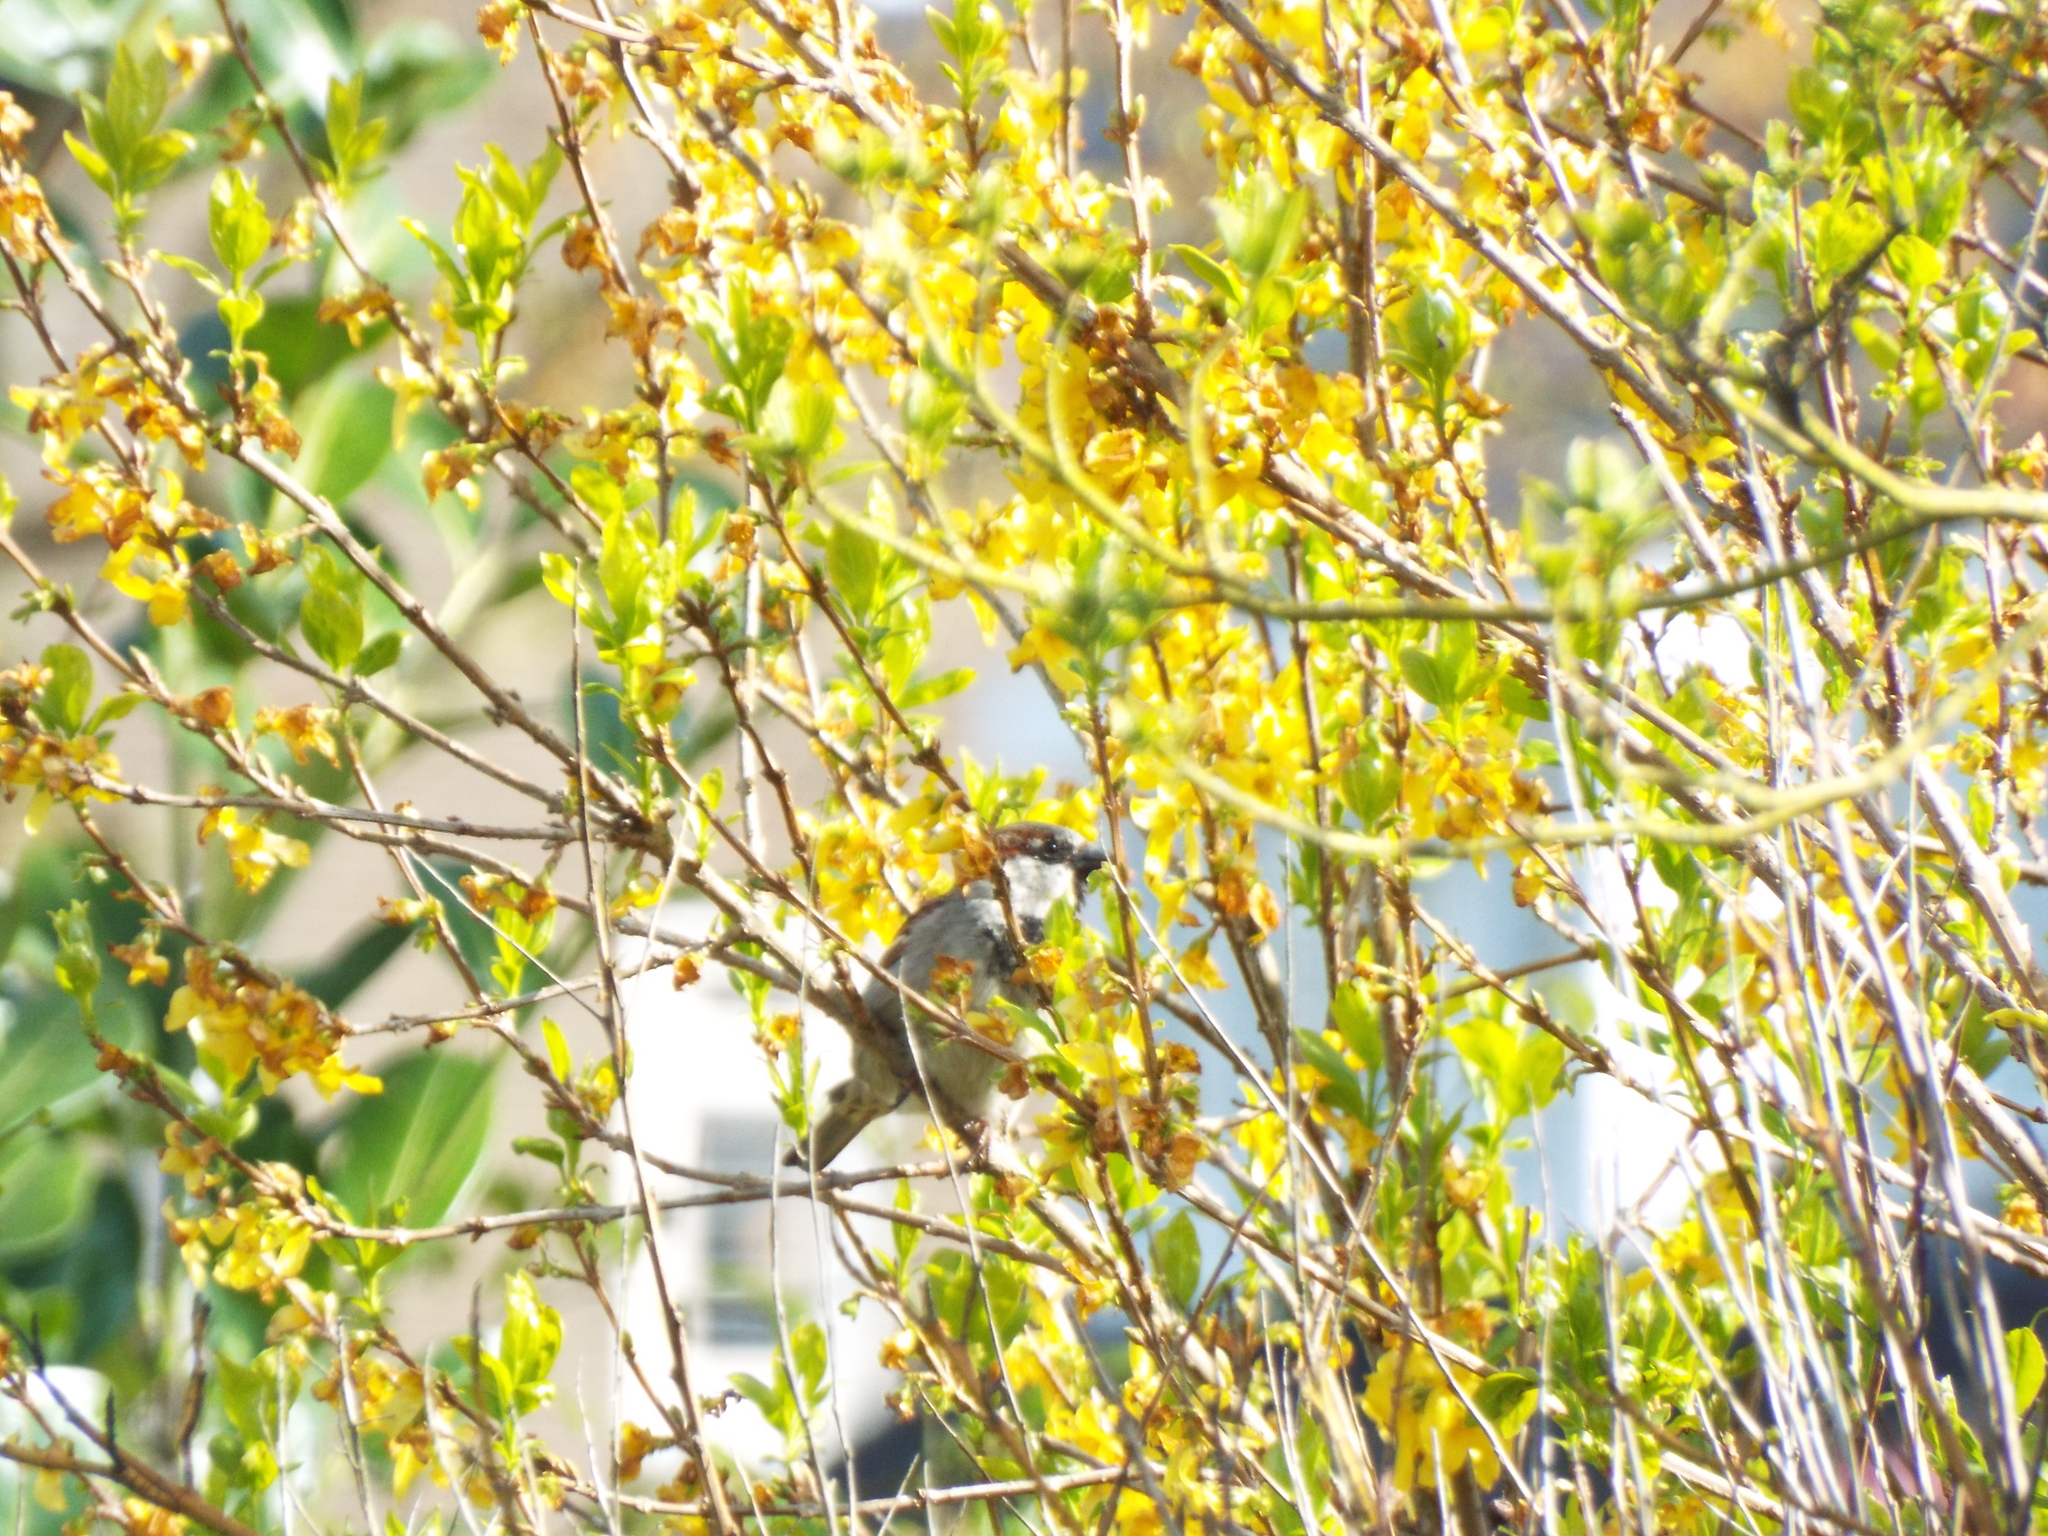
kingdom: Animalia
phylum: Chordata
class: Aves
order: Passeriformes
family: Passeridae
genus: Passer
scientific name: Passer domesticus
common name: House sparrow
